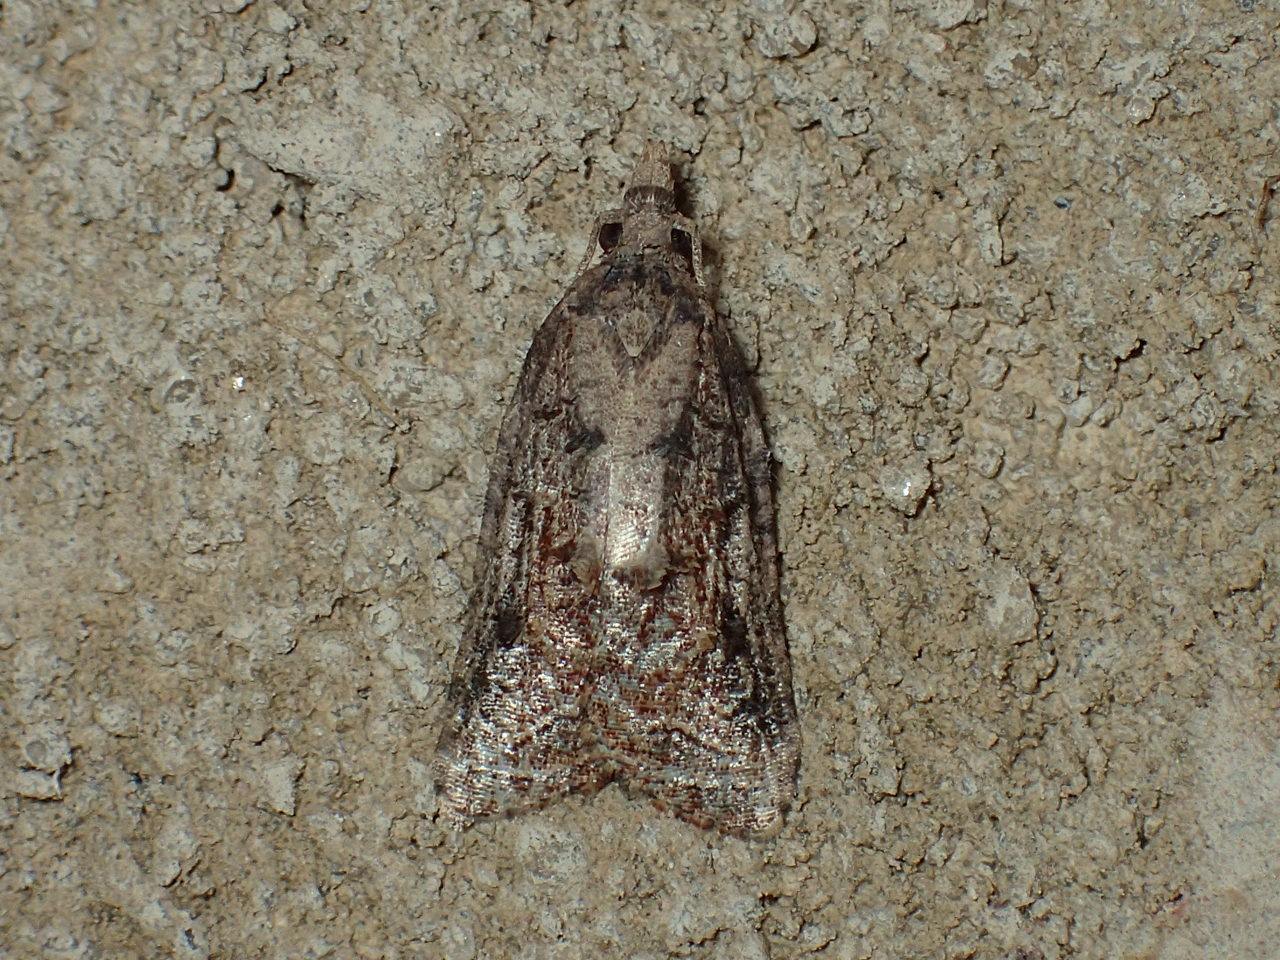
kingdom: Animalia
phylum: Arthropoda
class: Insecta
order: Lepidoptera
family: Tortricidae
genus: Platynota
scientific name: Platynota idaeusalis
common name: Tufted apple bud moth
